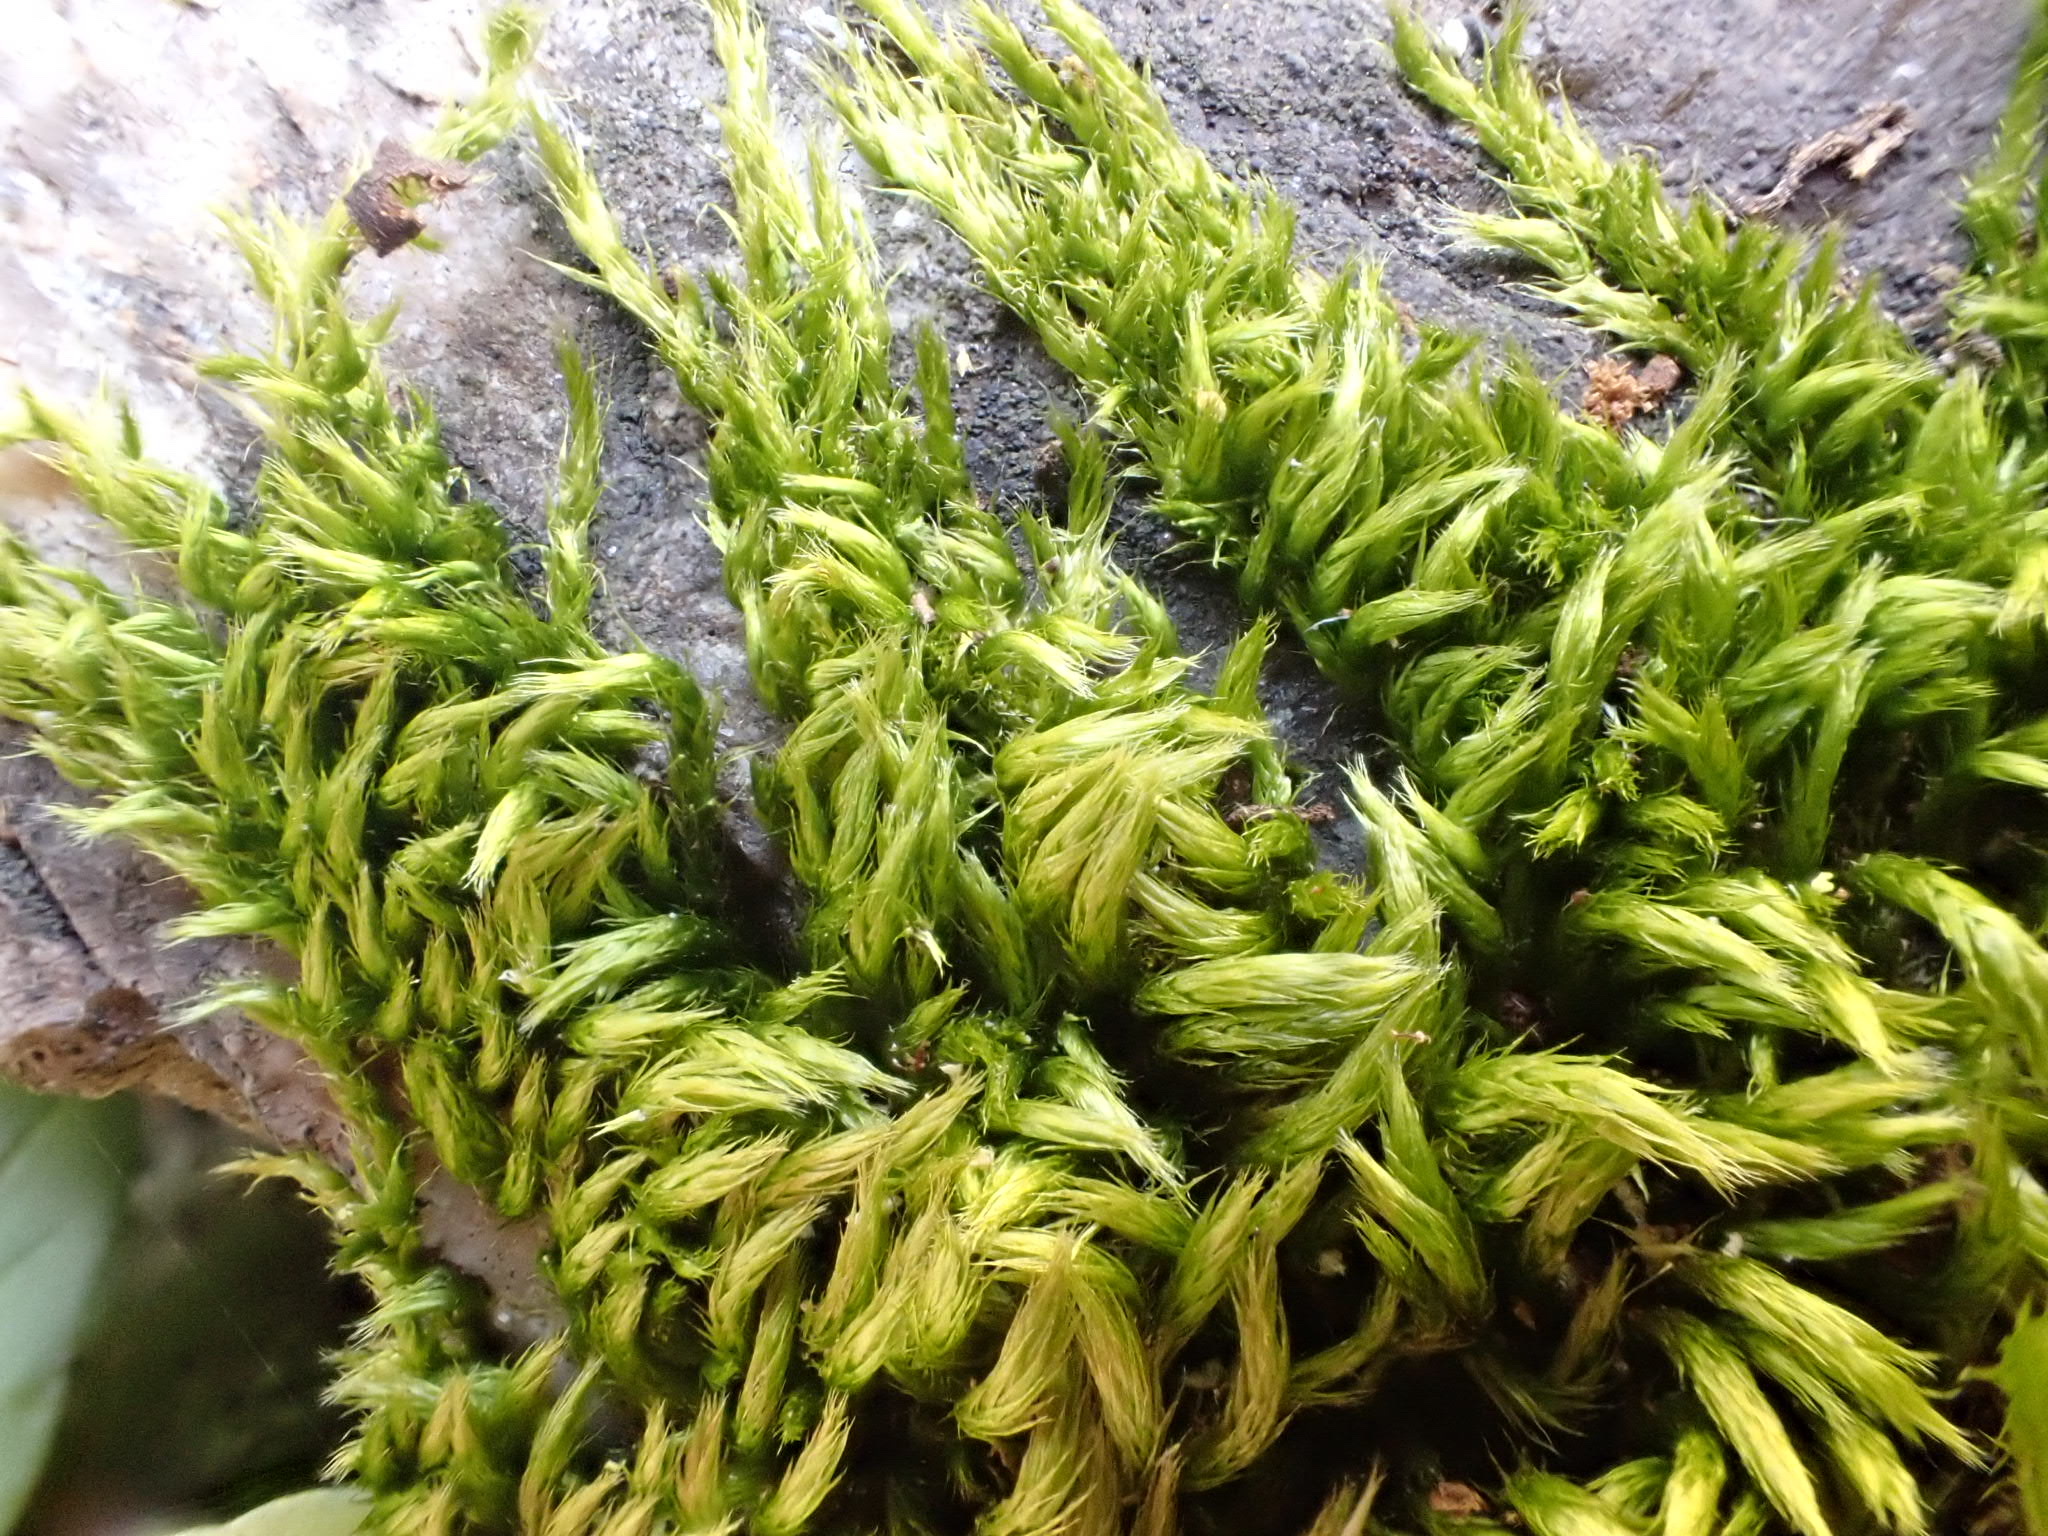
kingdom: Plantae
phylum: Bryophyta
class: Bryopsida
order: Hypnales
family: Brachytheciaceae
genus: Homalothecium
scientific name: Homalothecium sericeum
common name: Silky wall feather-moss
